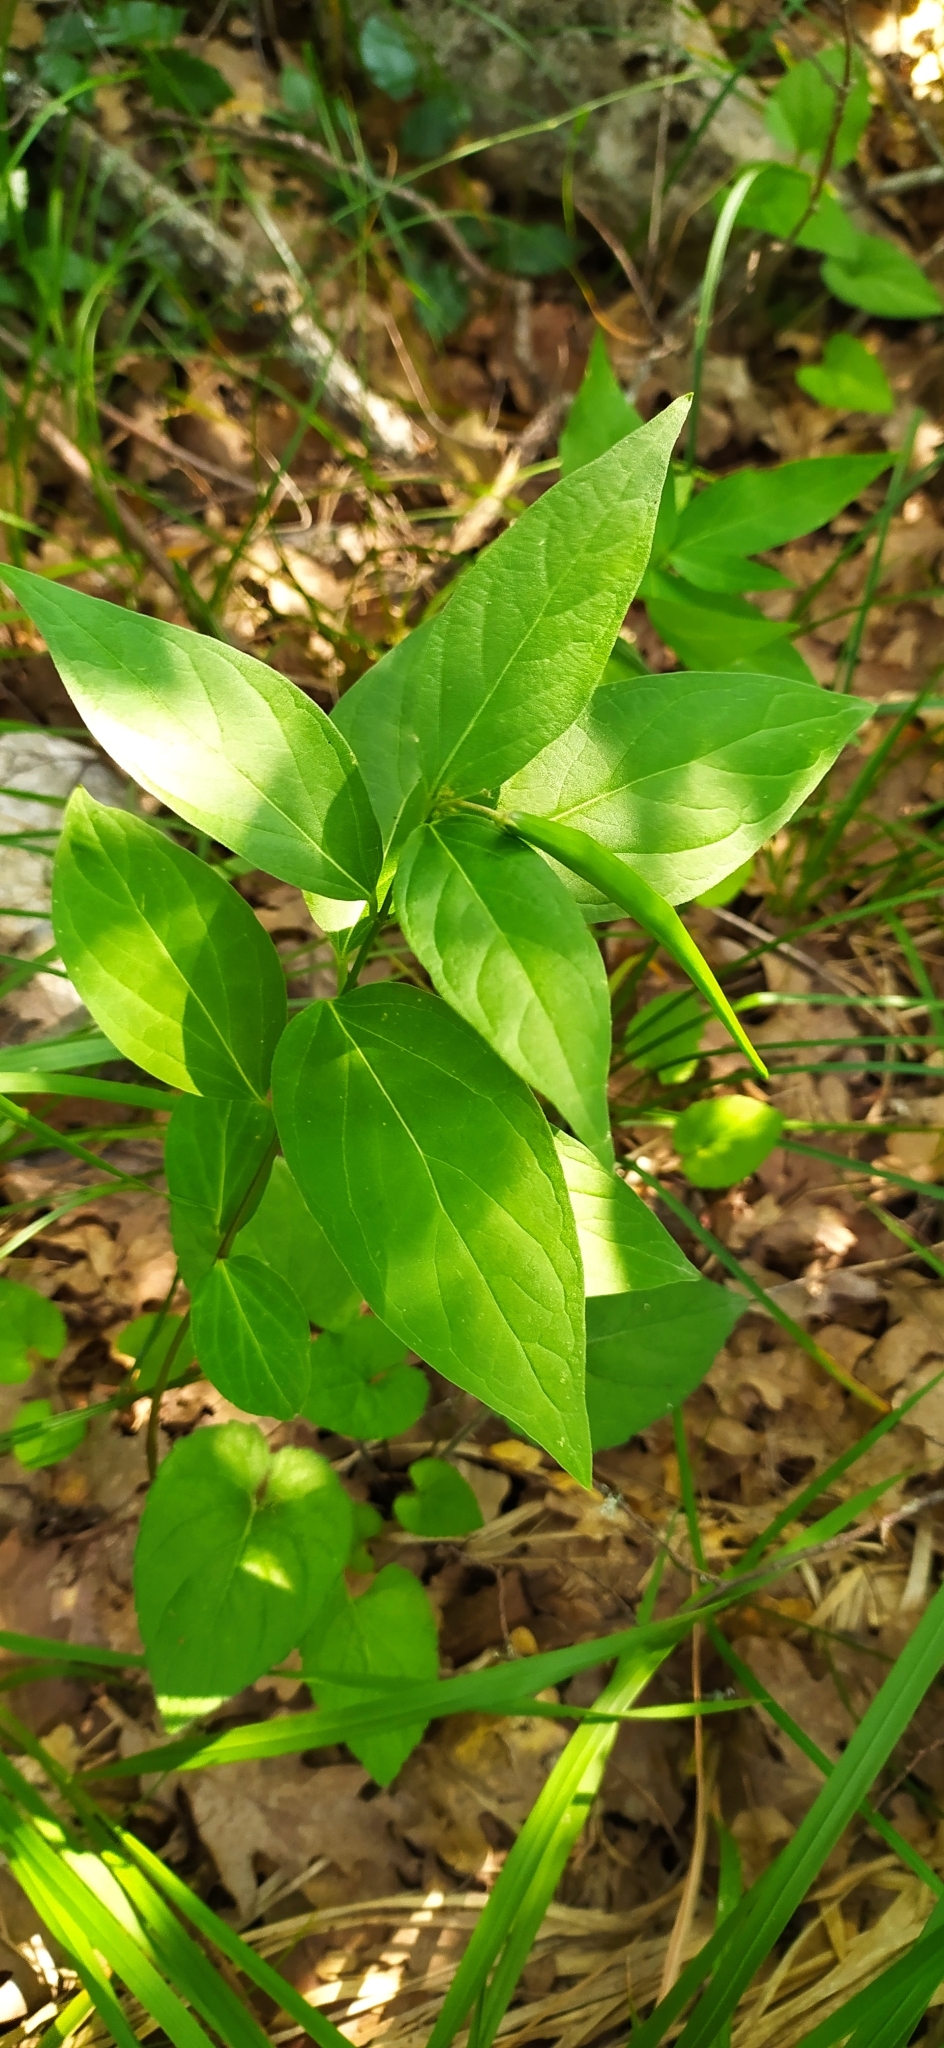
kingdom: Plantae
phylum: Tracheophyta
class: Magnoliopsida
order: Gentianales
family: Apocynaceae
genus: Vincetoxicum
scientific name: Vincetoxicum scandens
